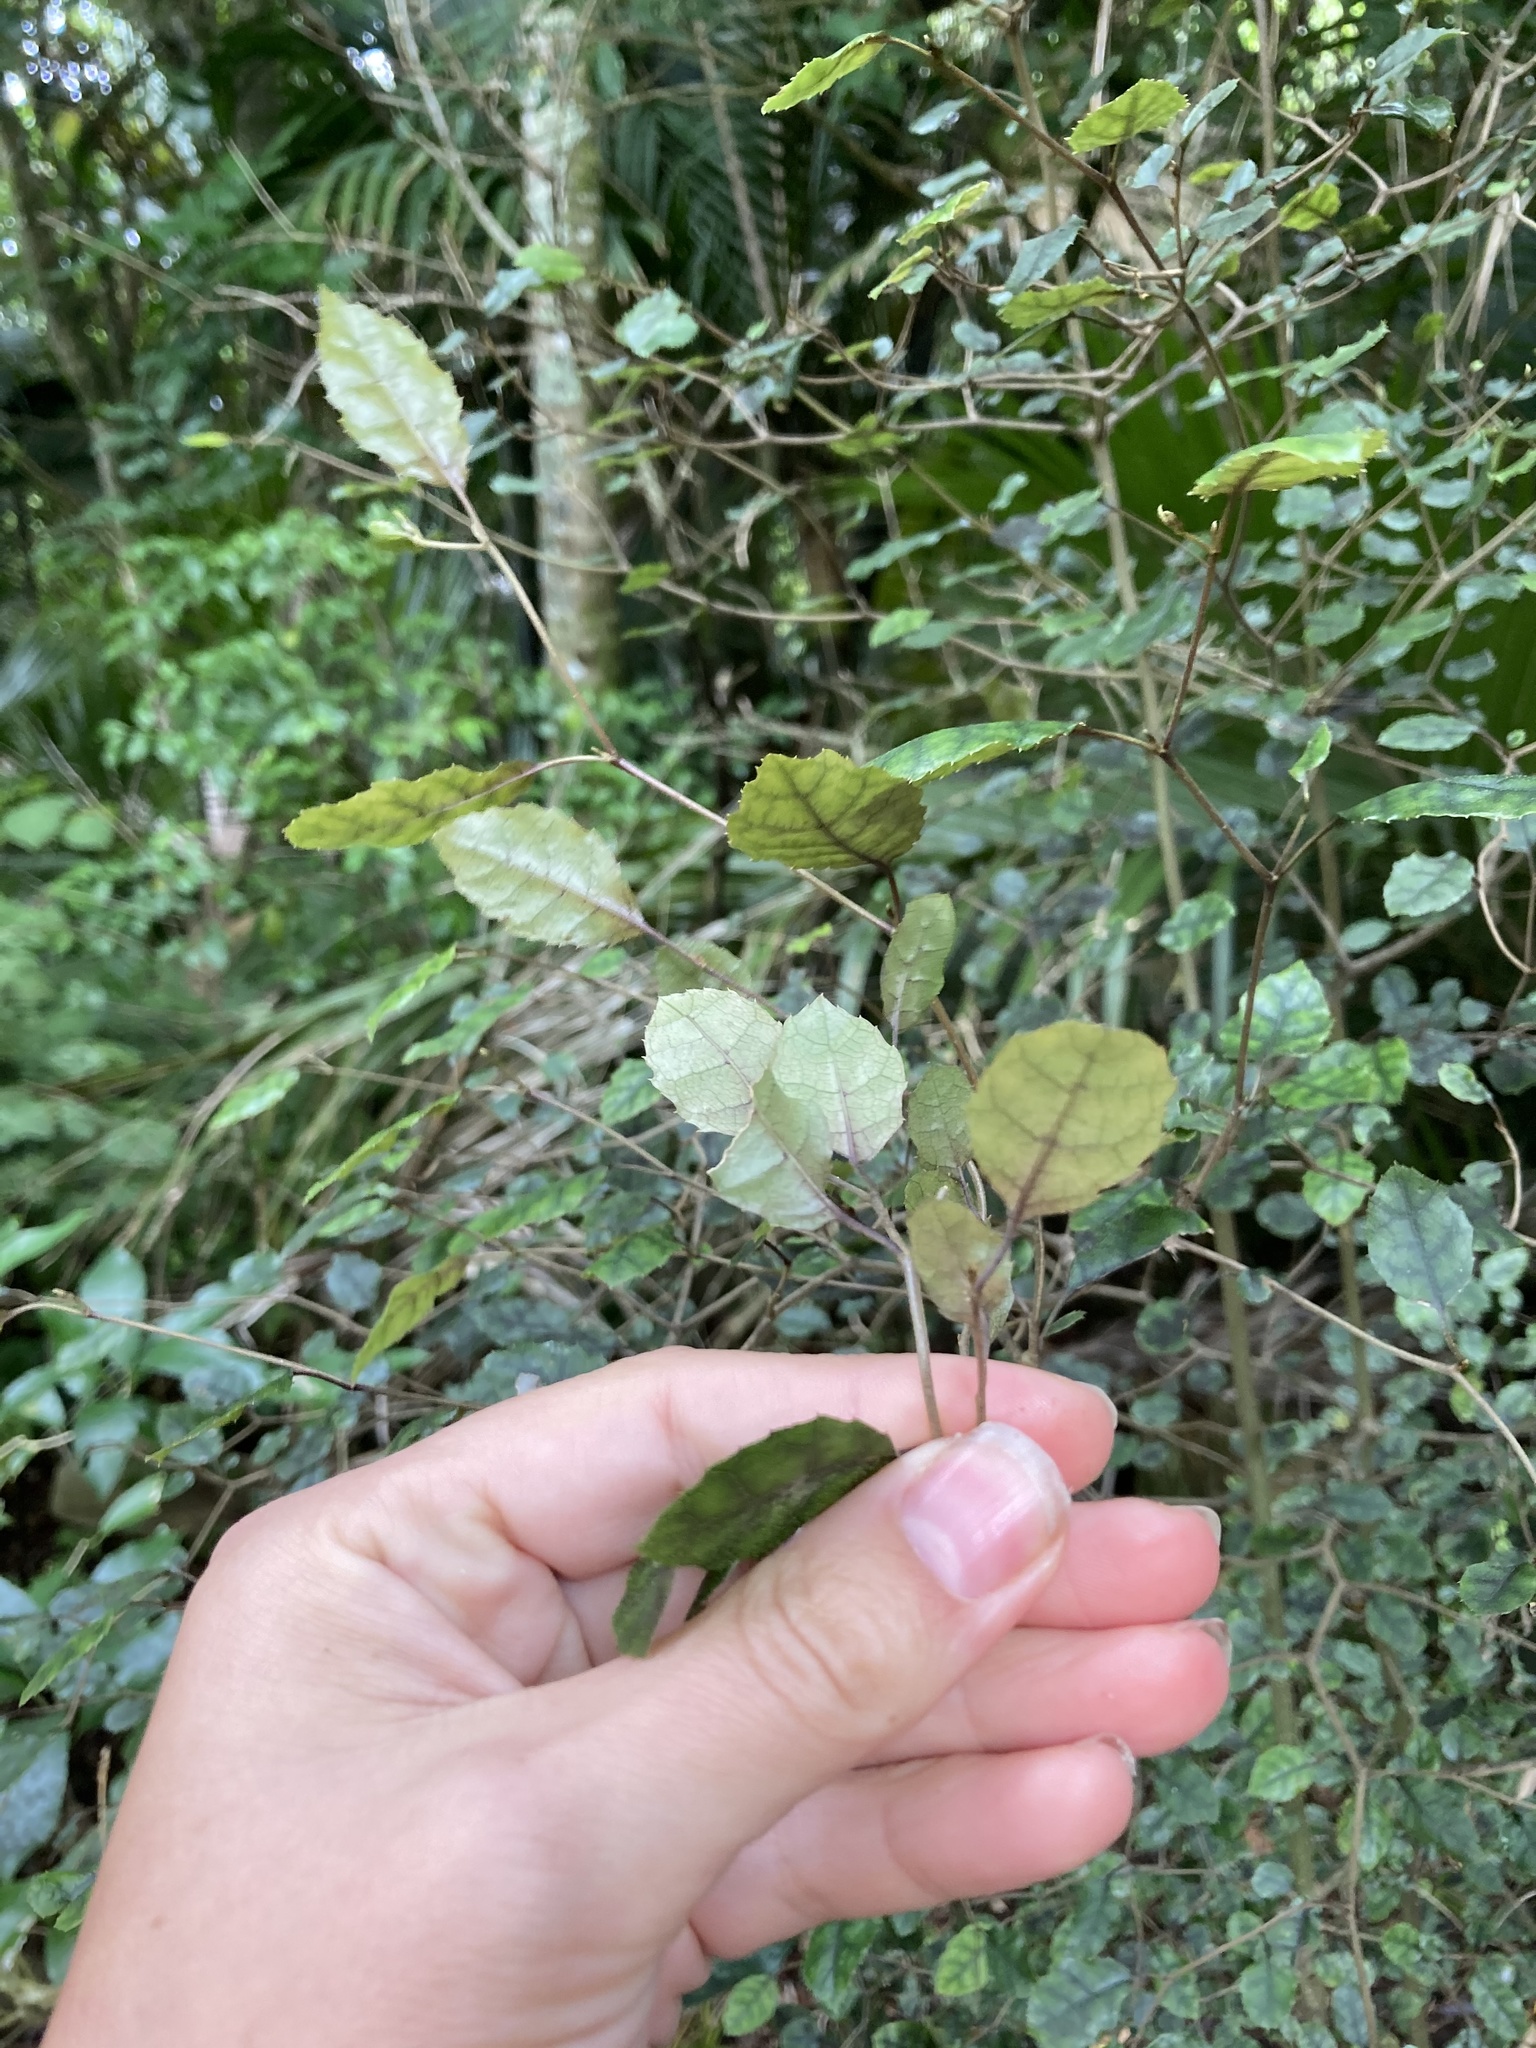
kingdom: Plantae
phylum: Tracheophyta
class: Magnoliopsida
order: Asterales
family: Rousseaceae
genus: Carpodetus
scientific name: Carpodetus serratus
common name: White mapau
